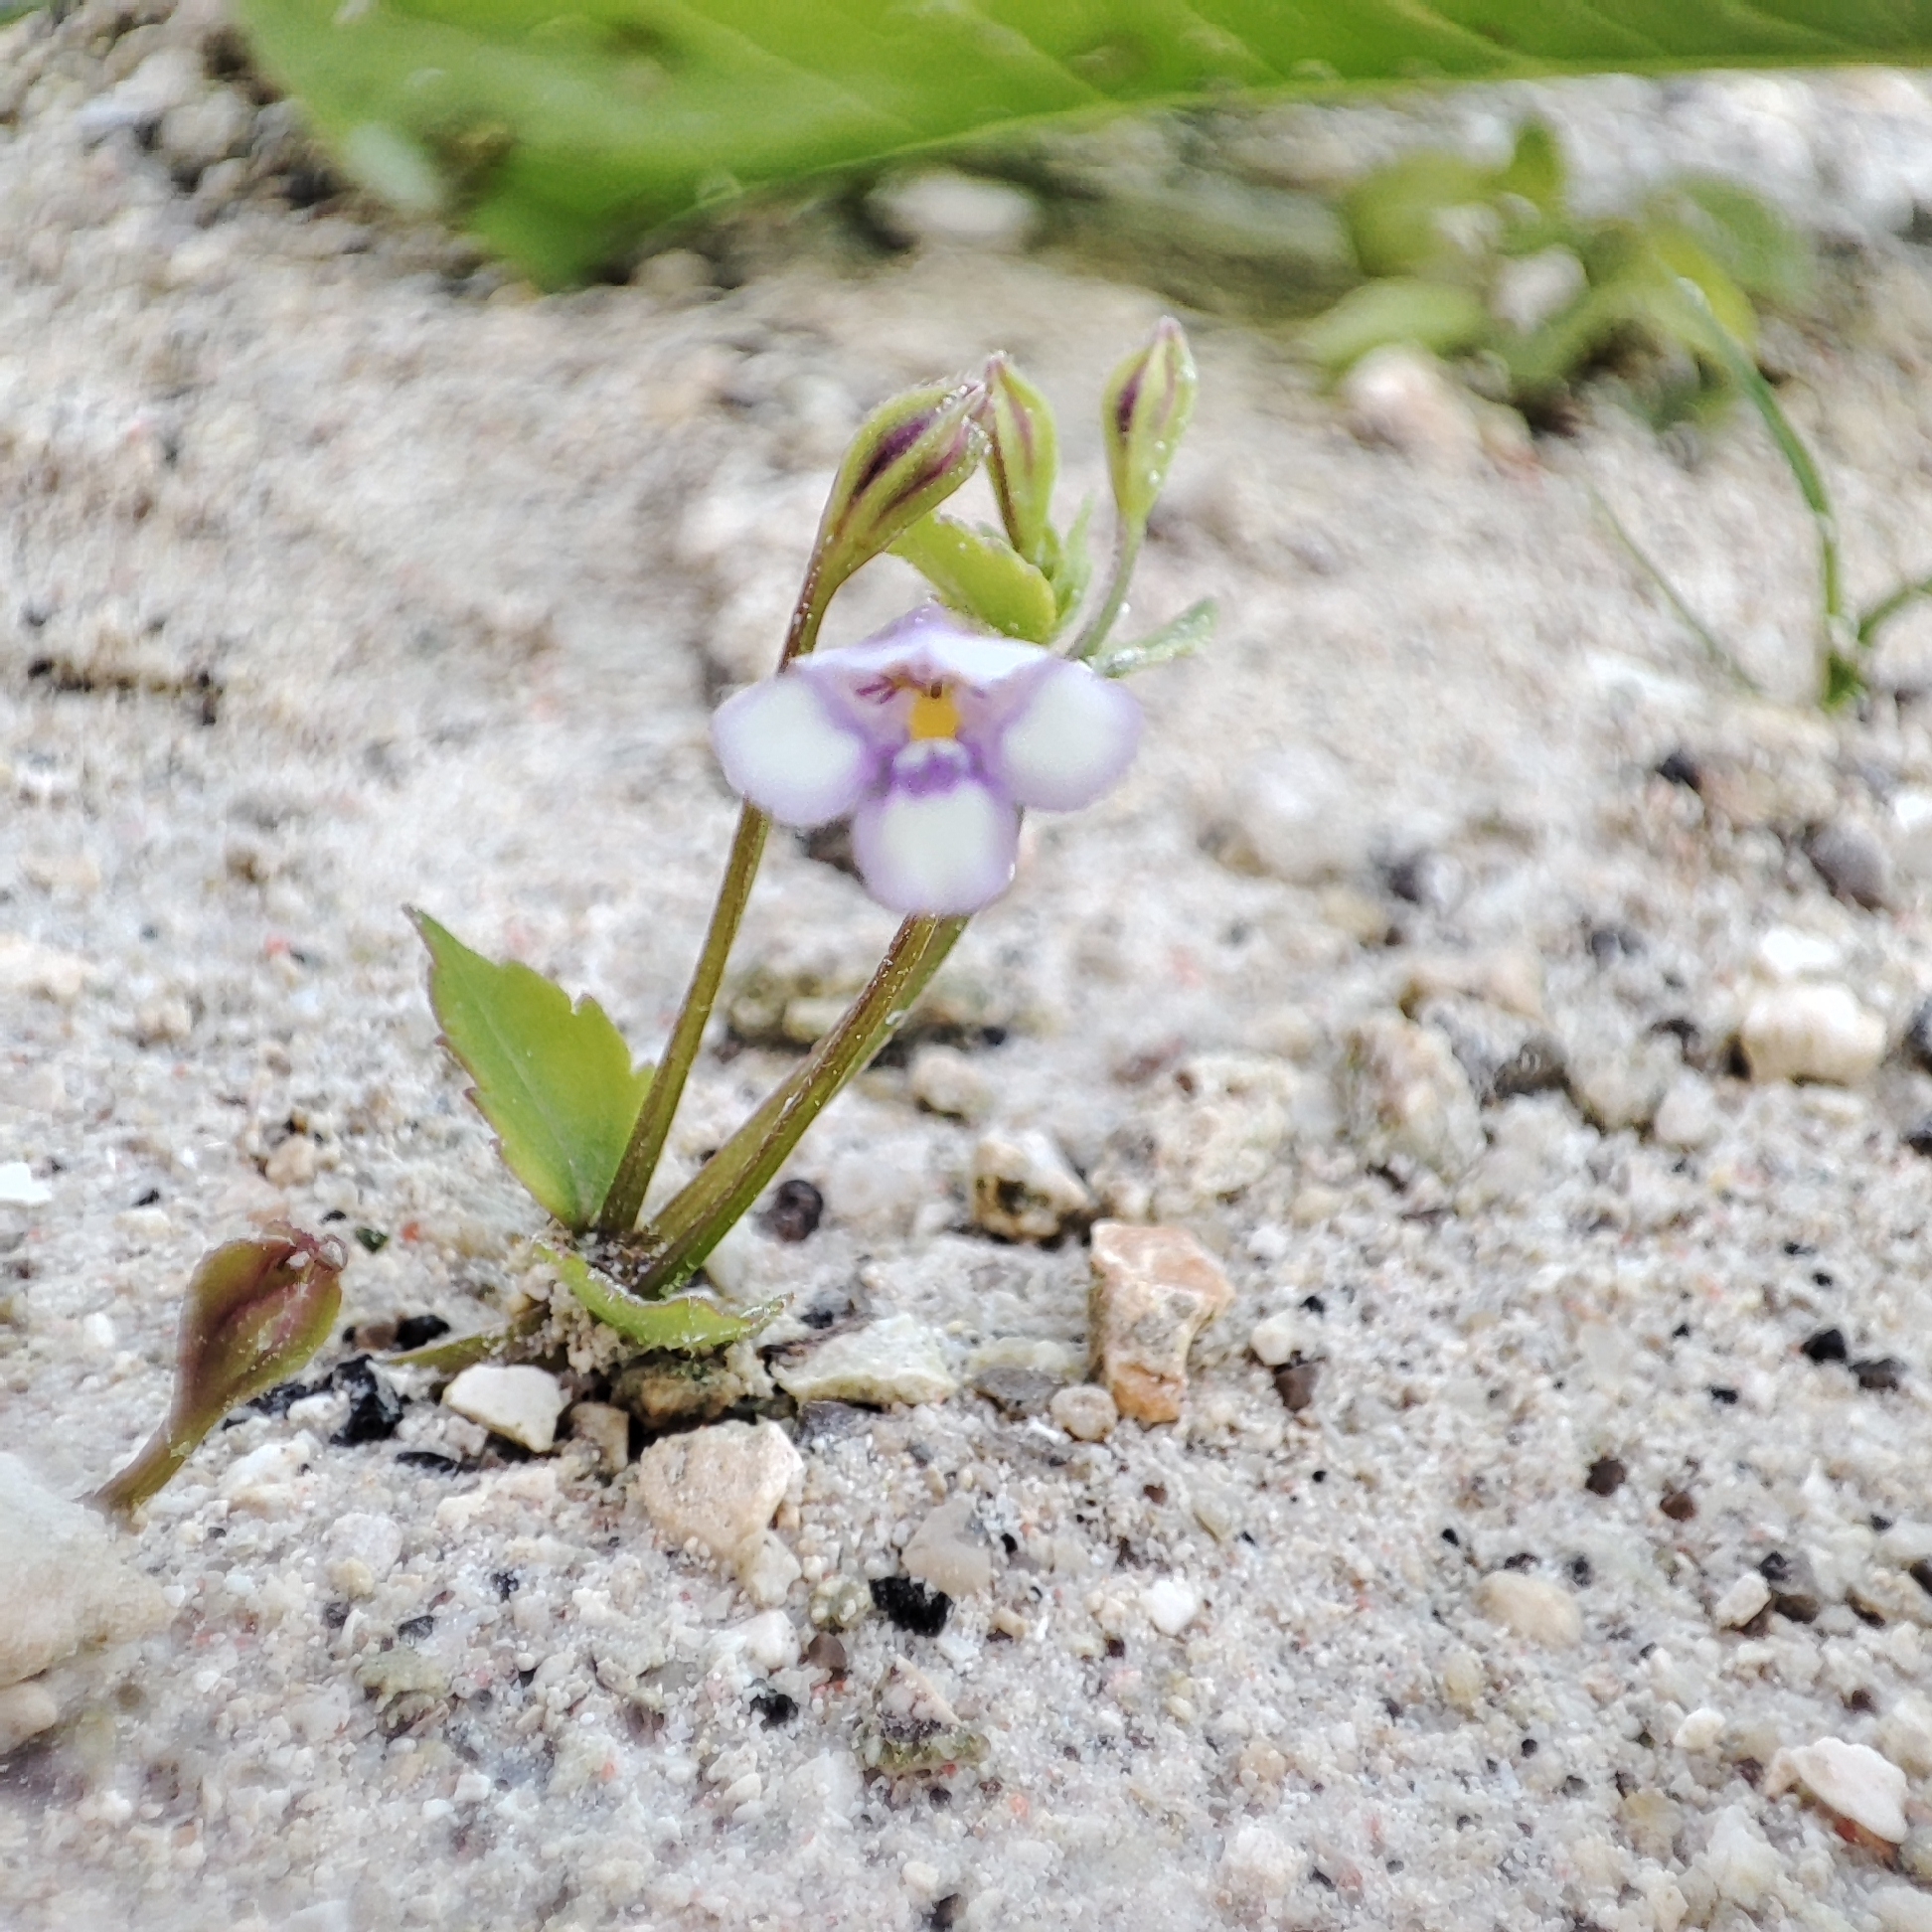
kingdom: Plantae
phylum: Tracheophyta
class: Magnoliopsida
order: Lamiales
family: Linderniaceae
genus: Torenia
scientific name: Torenia crustacea
